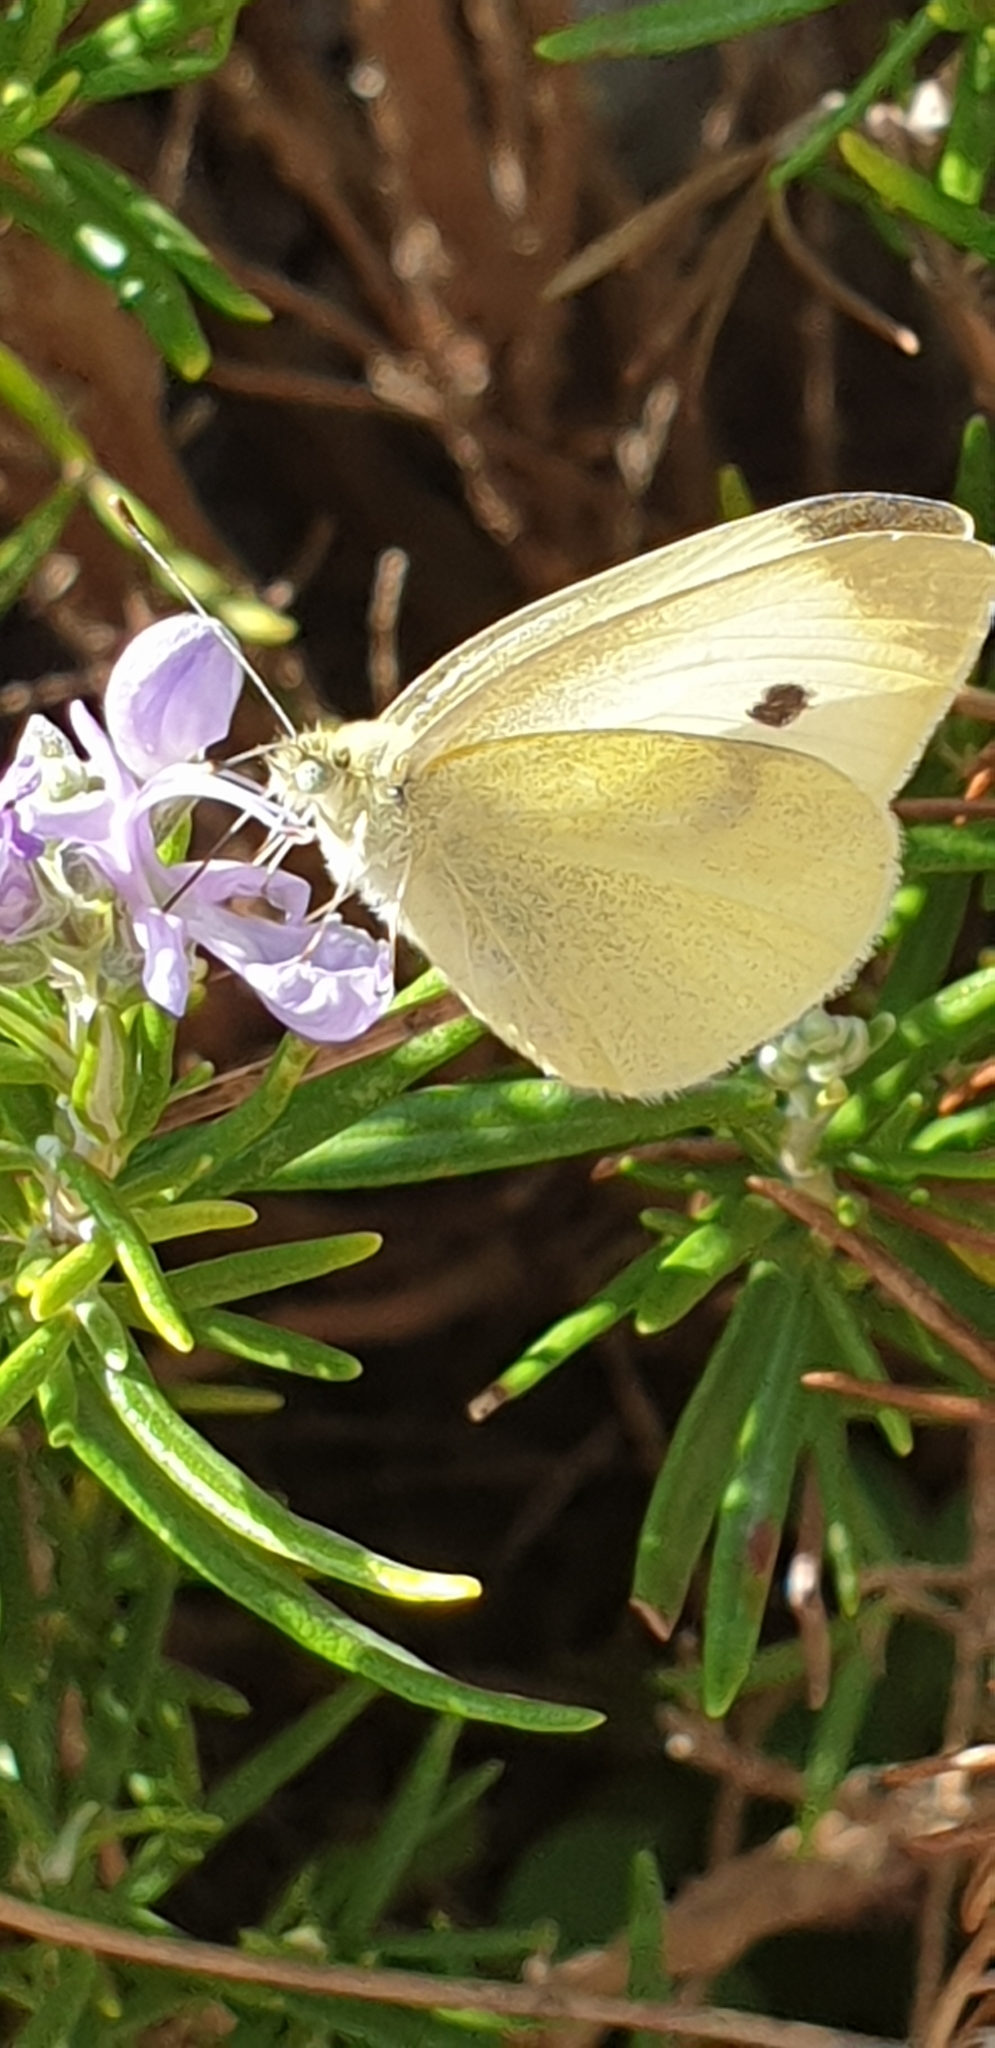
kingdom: Animalia
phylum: Arthropoda
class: Insecta
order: Lepidoptera
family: Pieridae
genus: Pieris
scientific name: Pieris rapae
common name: Small white
